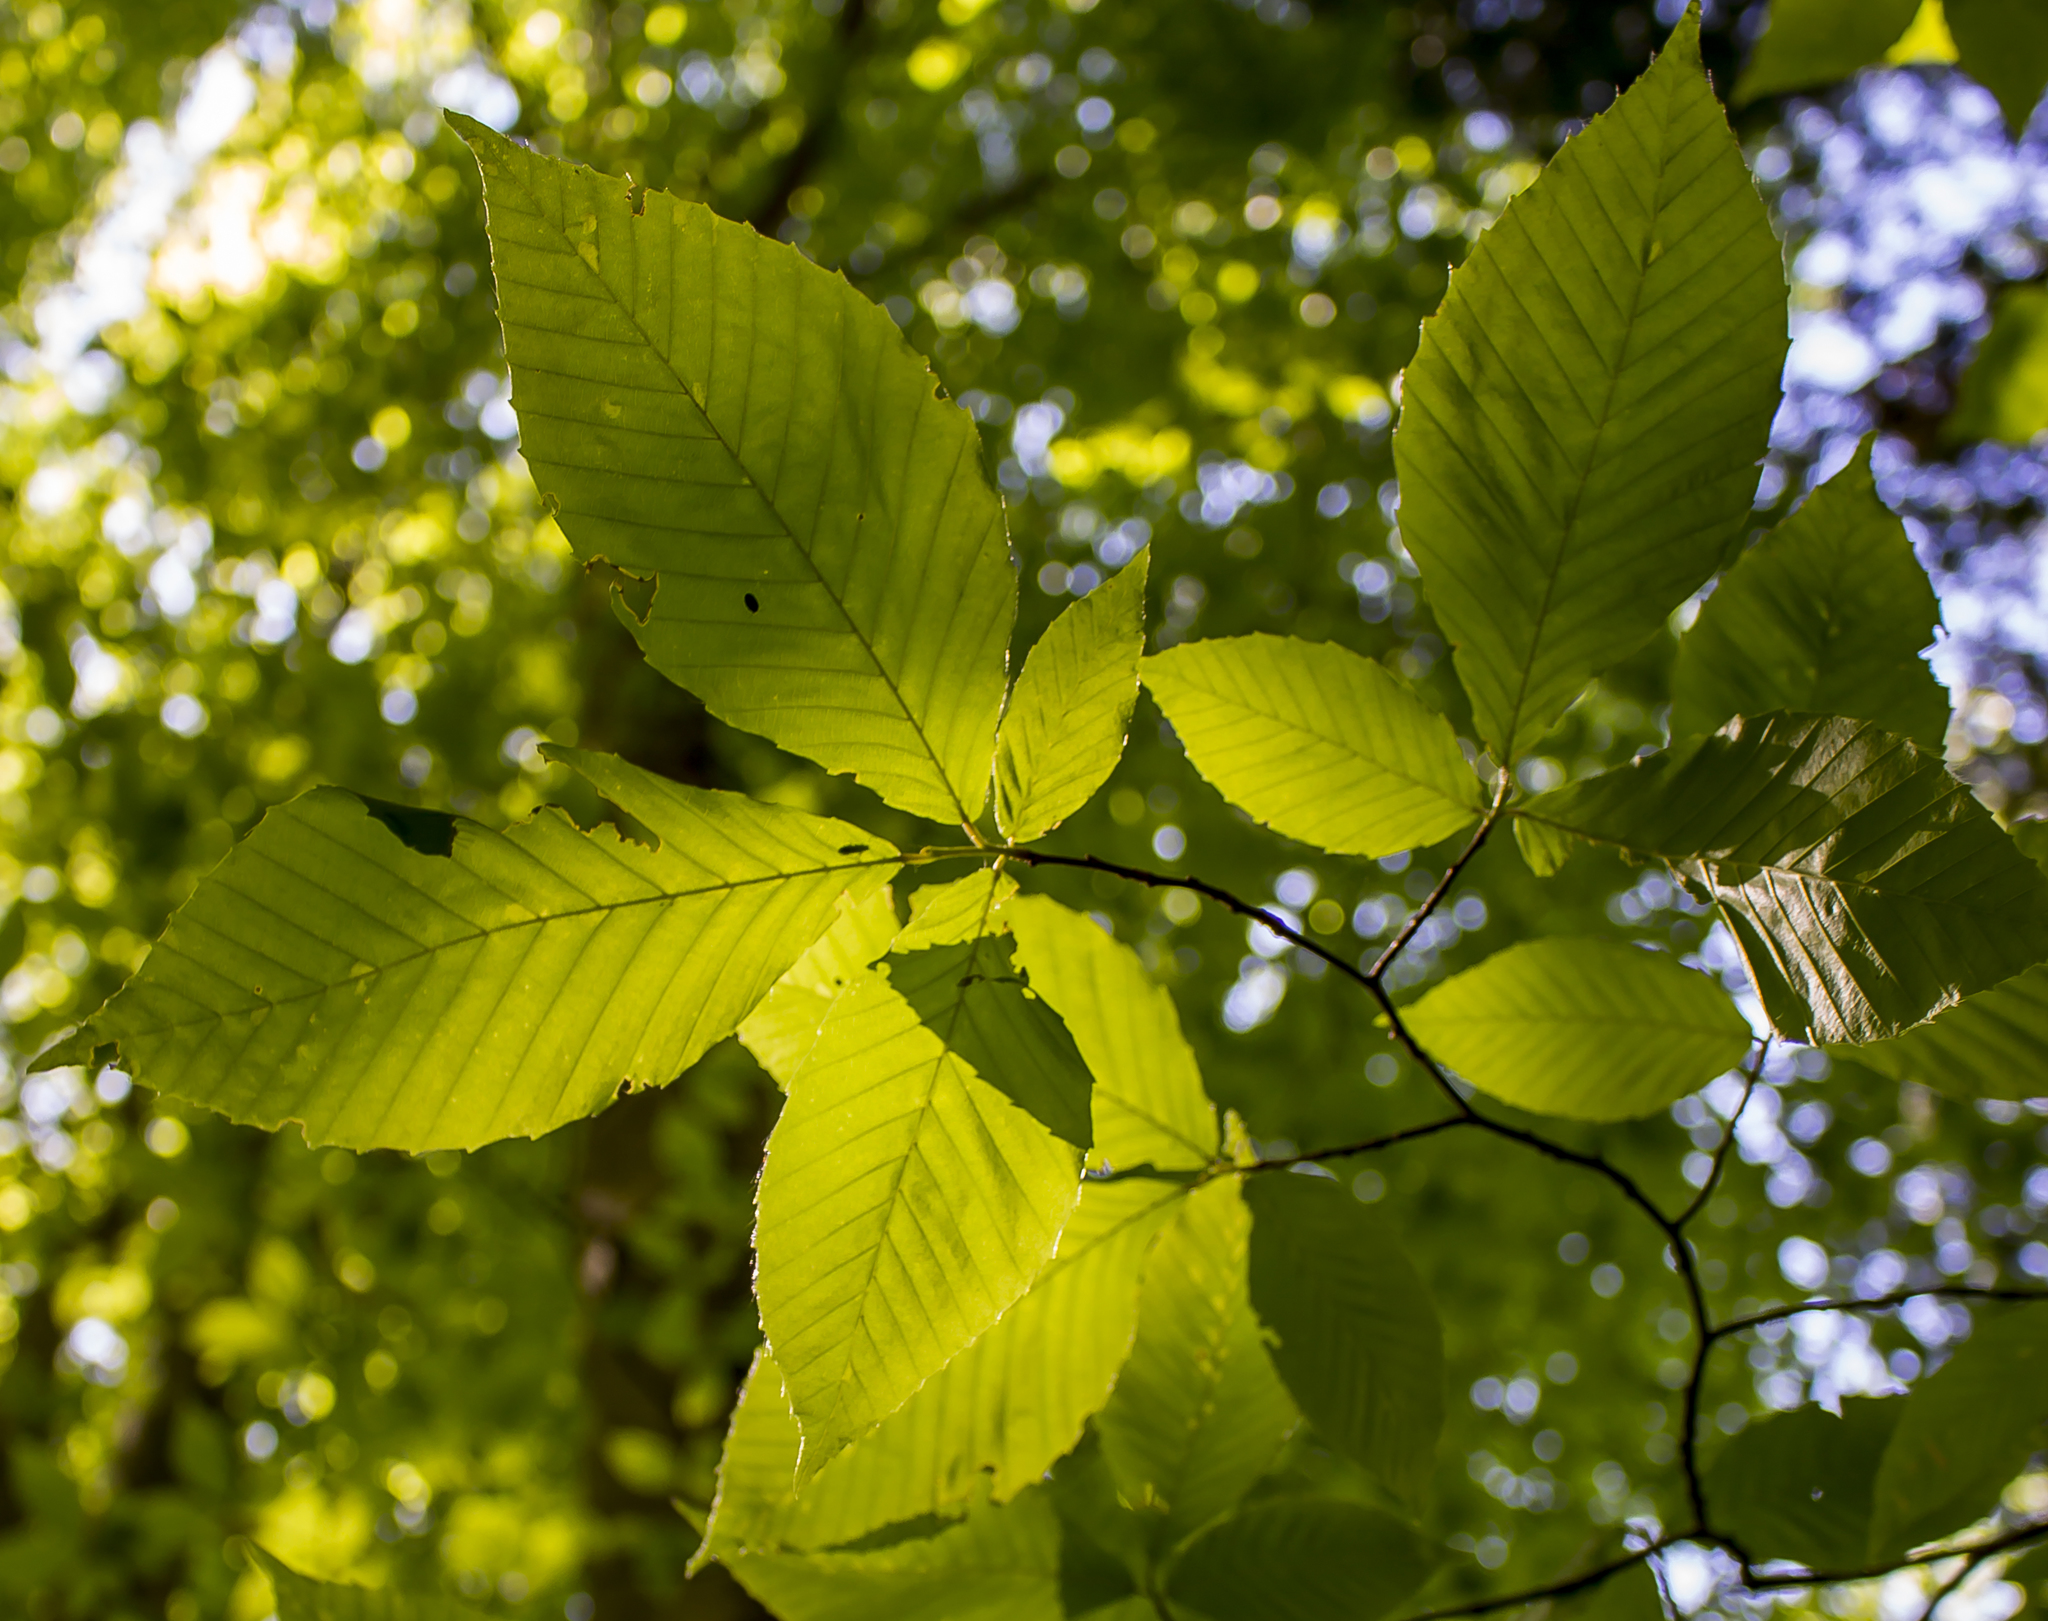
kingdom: Plantae
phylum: Tracheophyta
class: Magnoliopsida
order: Fagales
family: Fagaceae
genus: Fagus
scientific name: Fagus grandifolia
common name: American beech
